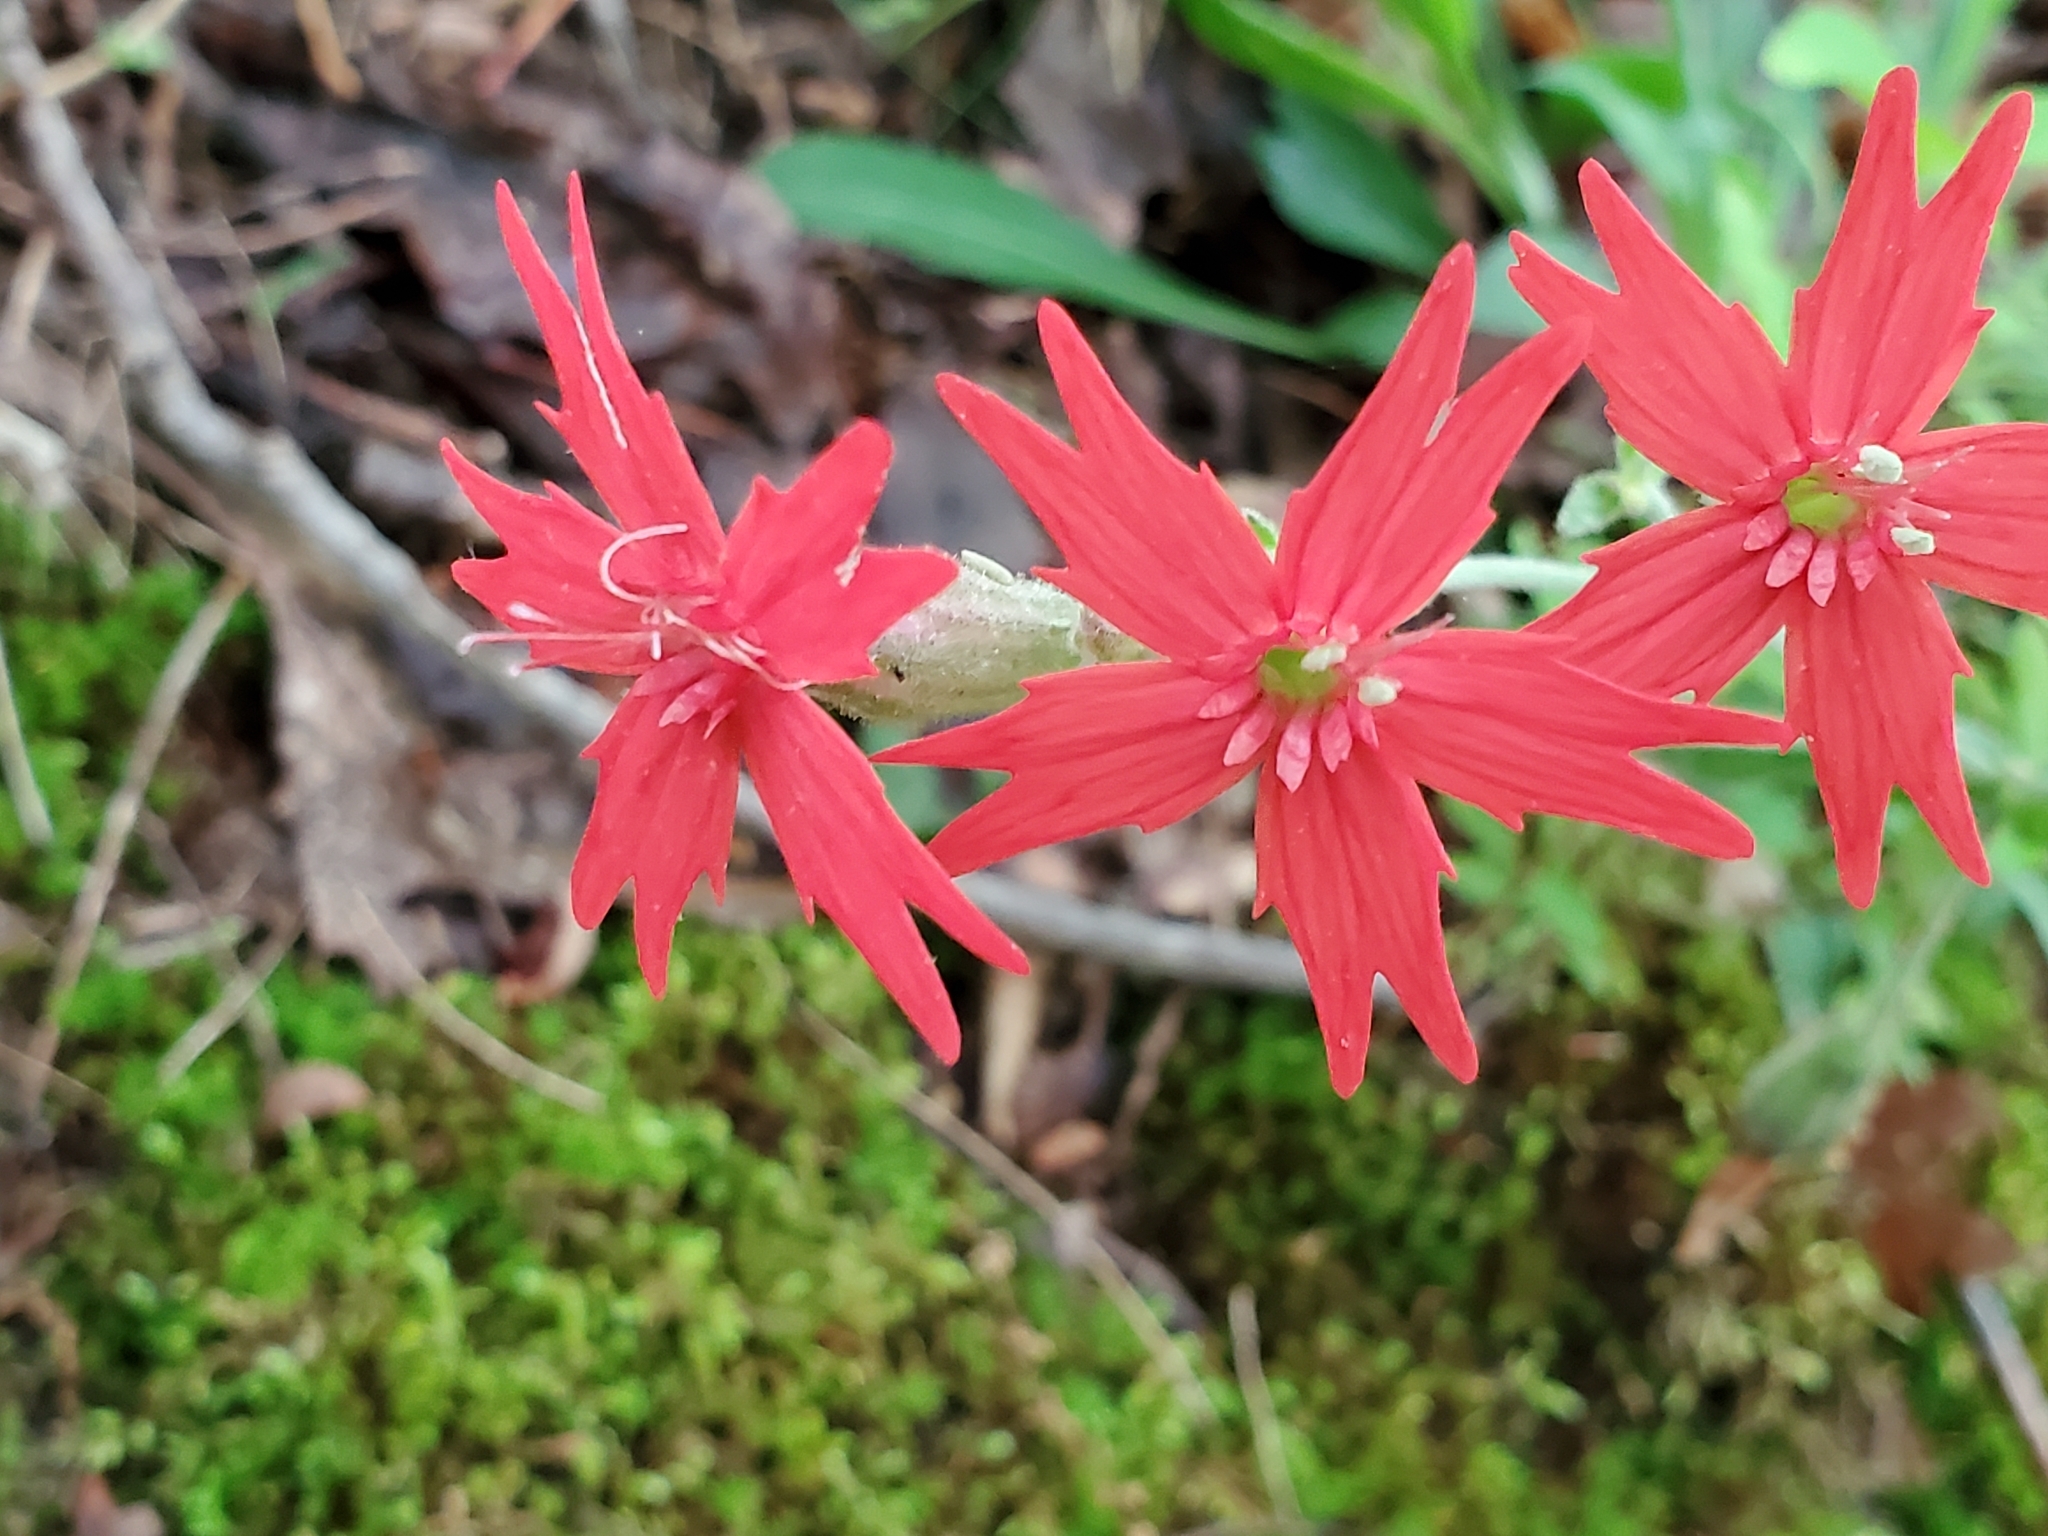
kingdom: Plantae
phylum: Tracheophyta
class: Magnoliopsida
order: Caryophyllales
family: Caryophyllaceae
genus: Silene
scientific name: Silene virginica
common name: Fire-pink
